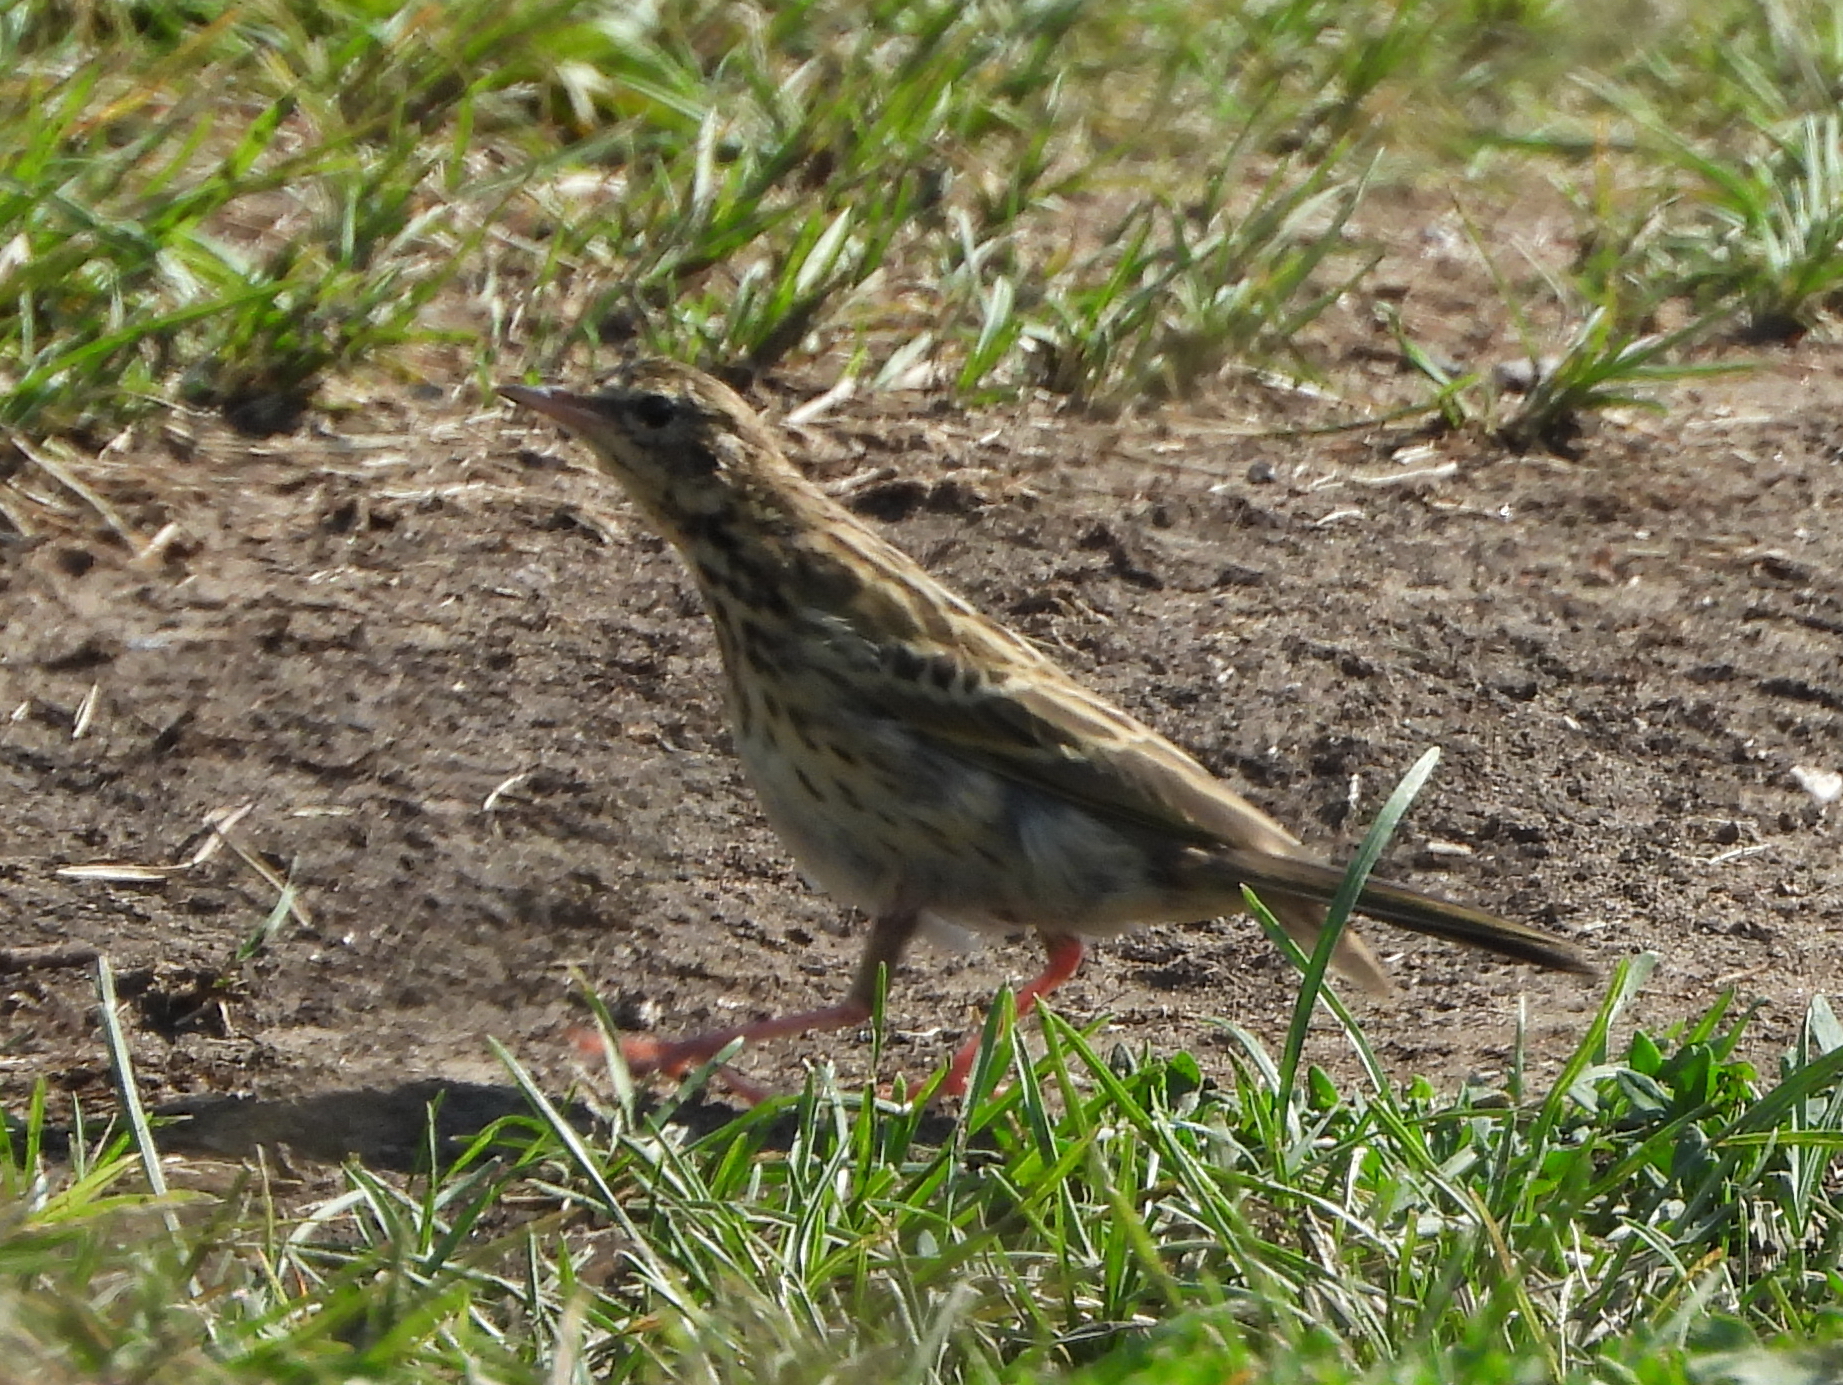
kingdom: Animalia
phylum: Chordata
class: Aves
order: Passeriformes
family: Motacillidae
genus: Anthus
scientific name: Anthus trivialis
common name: Tree pipit
